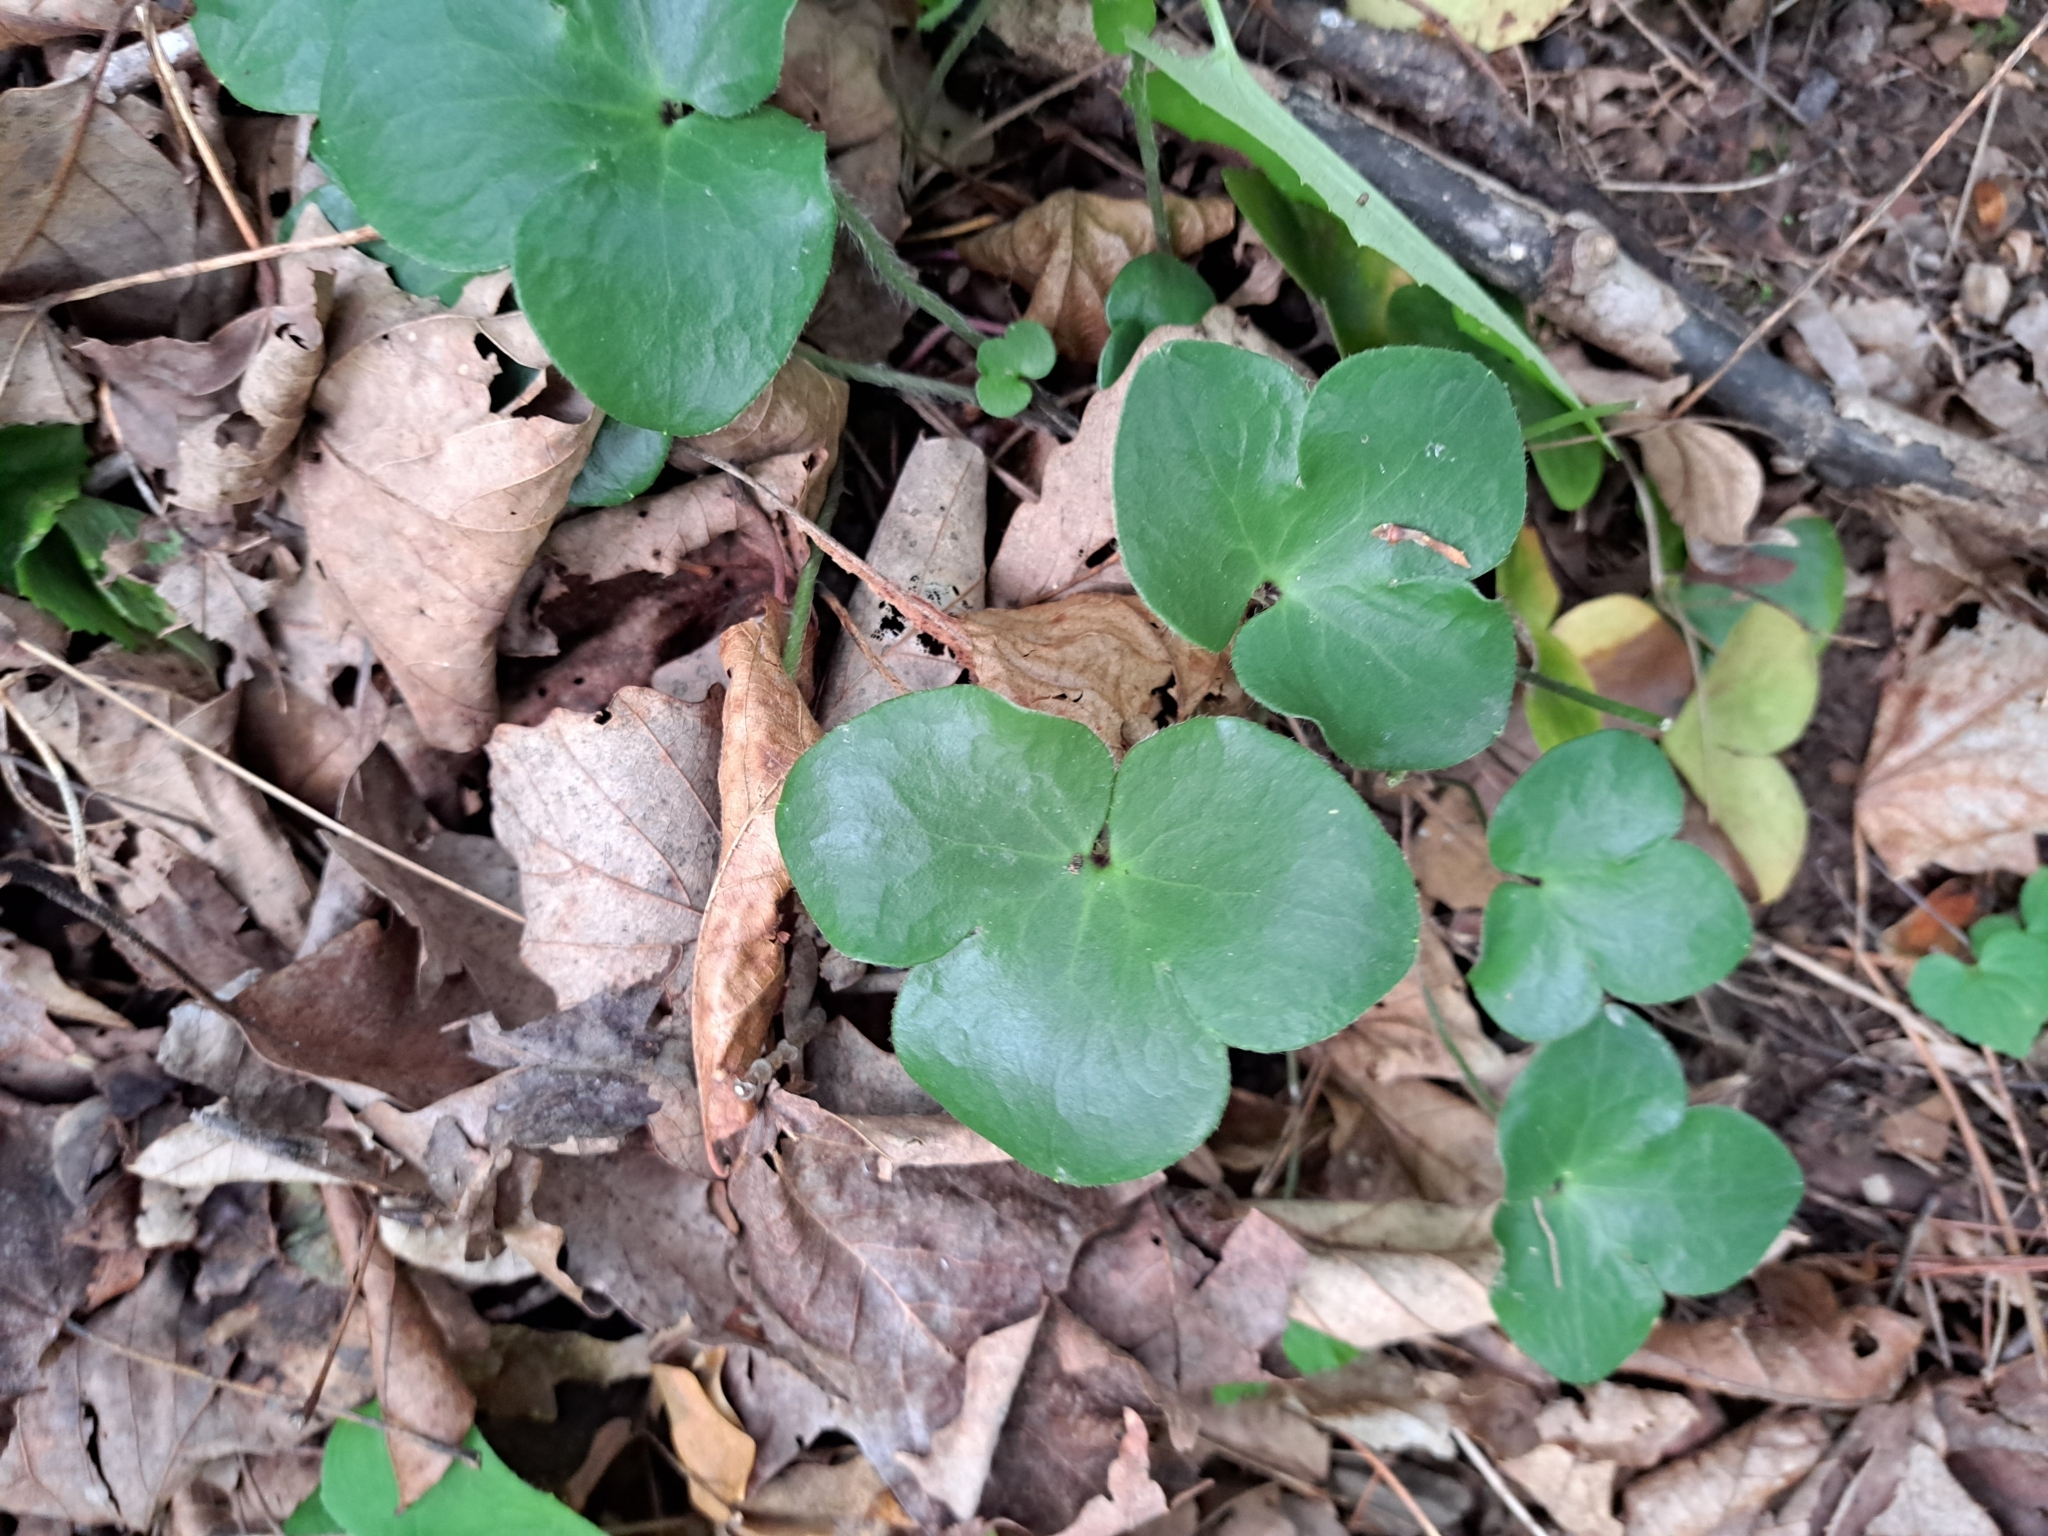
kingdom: Plantae
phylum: Tracheophyta
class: Magnoliopsida
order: Ranunculales
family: Ranunculaceae
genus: Hepatica
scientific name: Hepatica americana
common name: American hepatica
